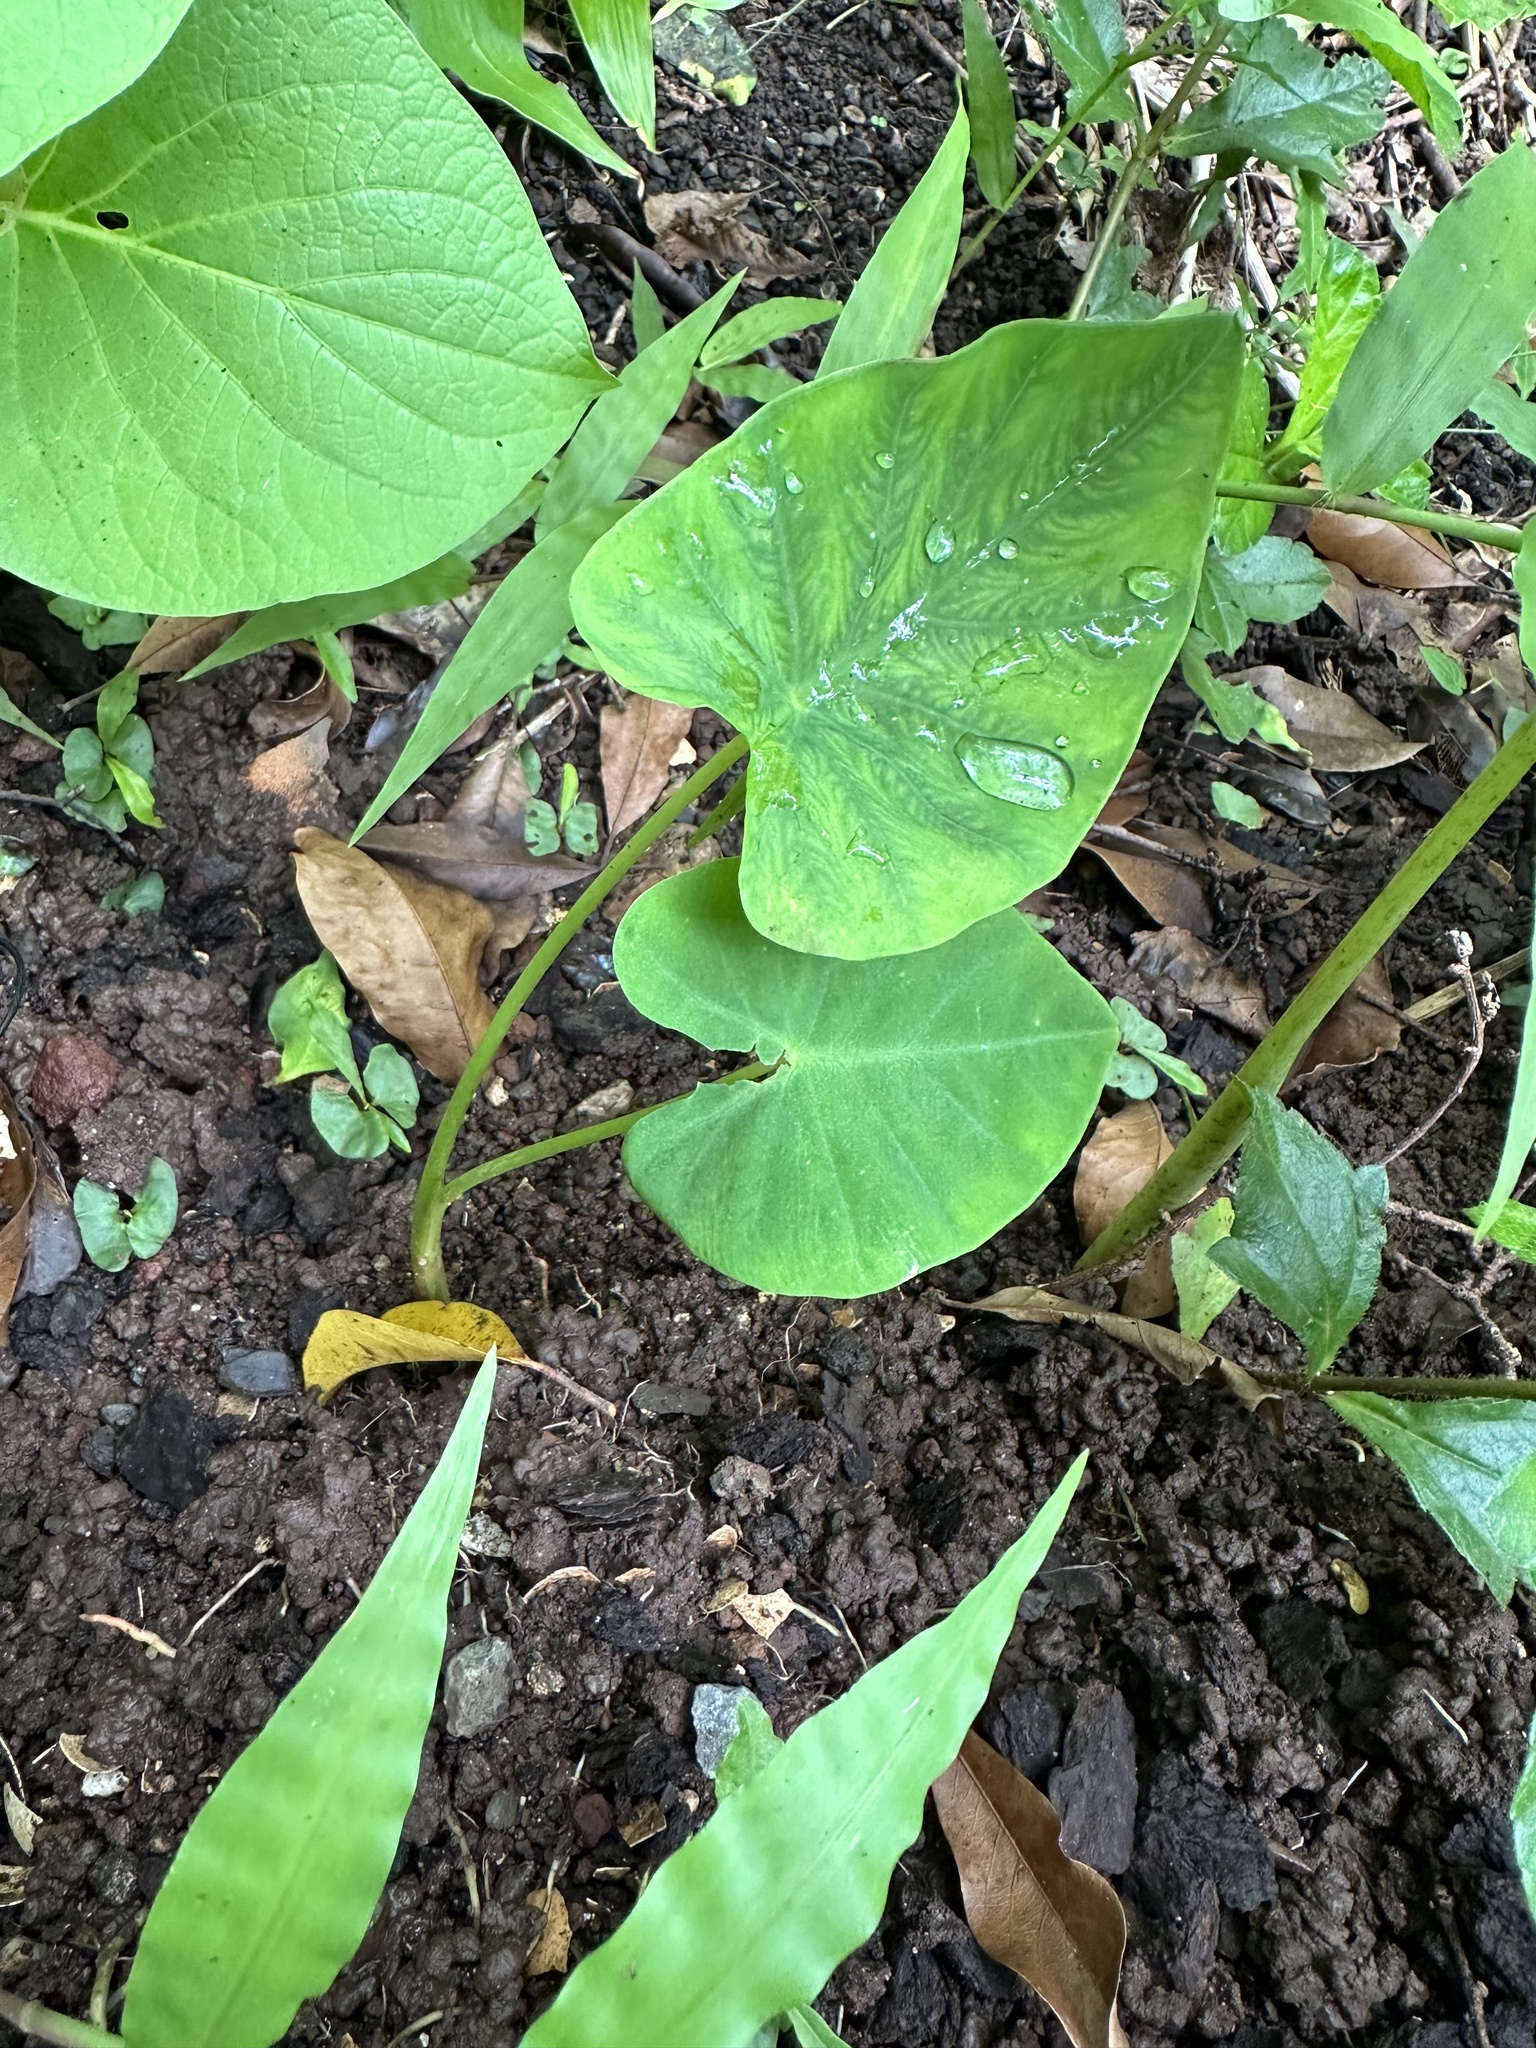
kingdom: Plantae
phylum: Tracheophyta
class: Liliopsida
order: Alismatales
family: Araceae
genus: Colocasia
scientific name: Colocasia esculenta
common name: Taro
